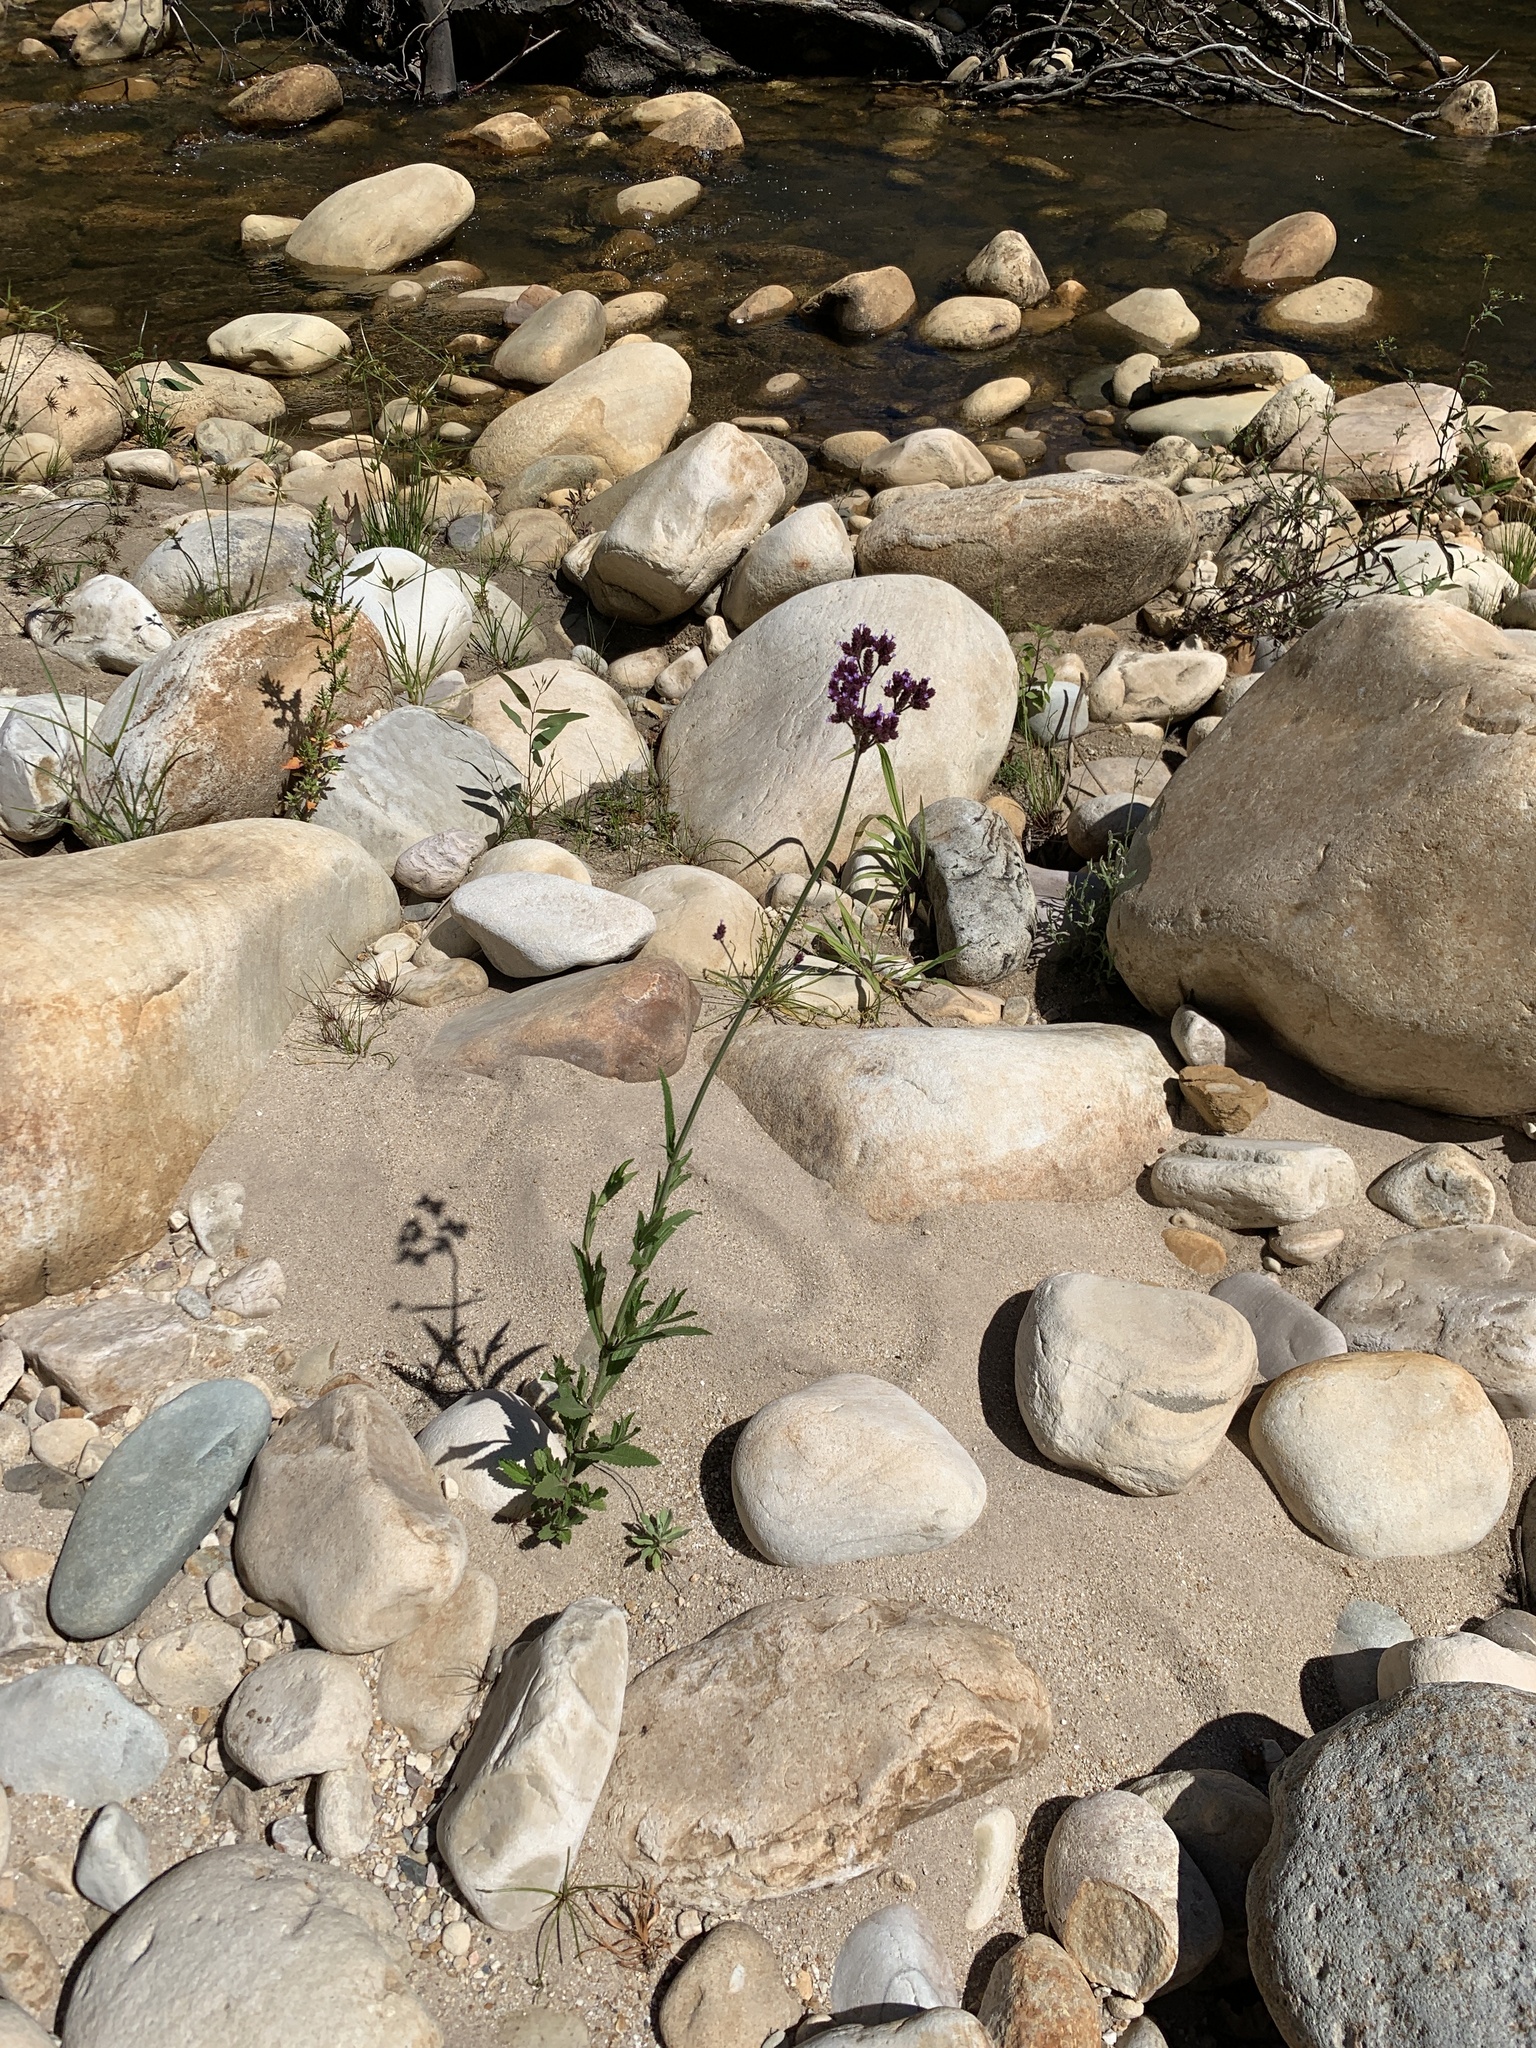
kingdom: Plantae
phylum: Tracheophyta
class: Magnoliopsida
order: Lamiales
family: Verbenaceae
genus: Verbena
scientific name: Verbena bonariensis
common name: Purpletop vervain
